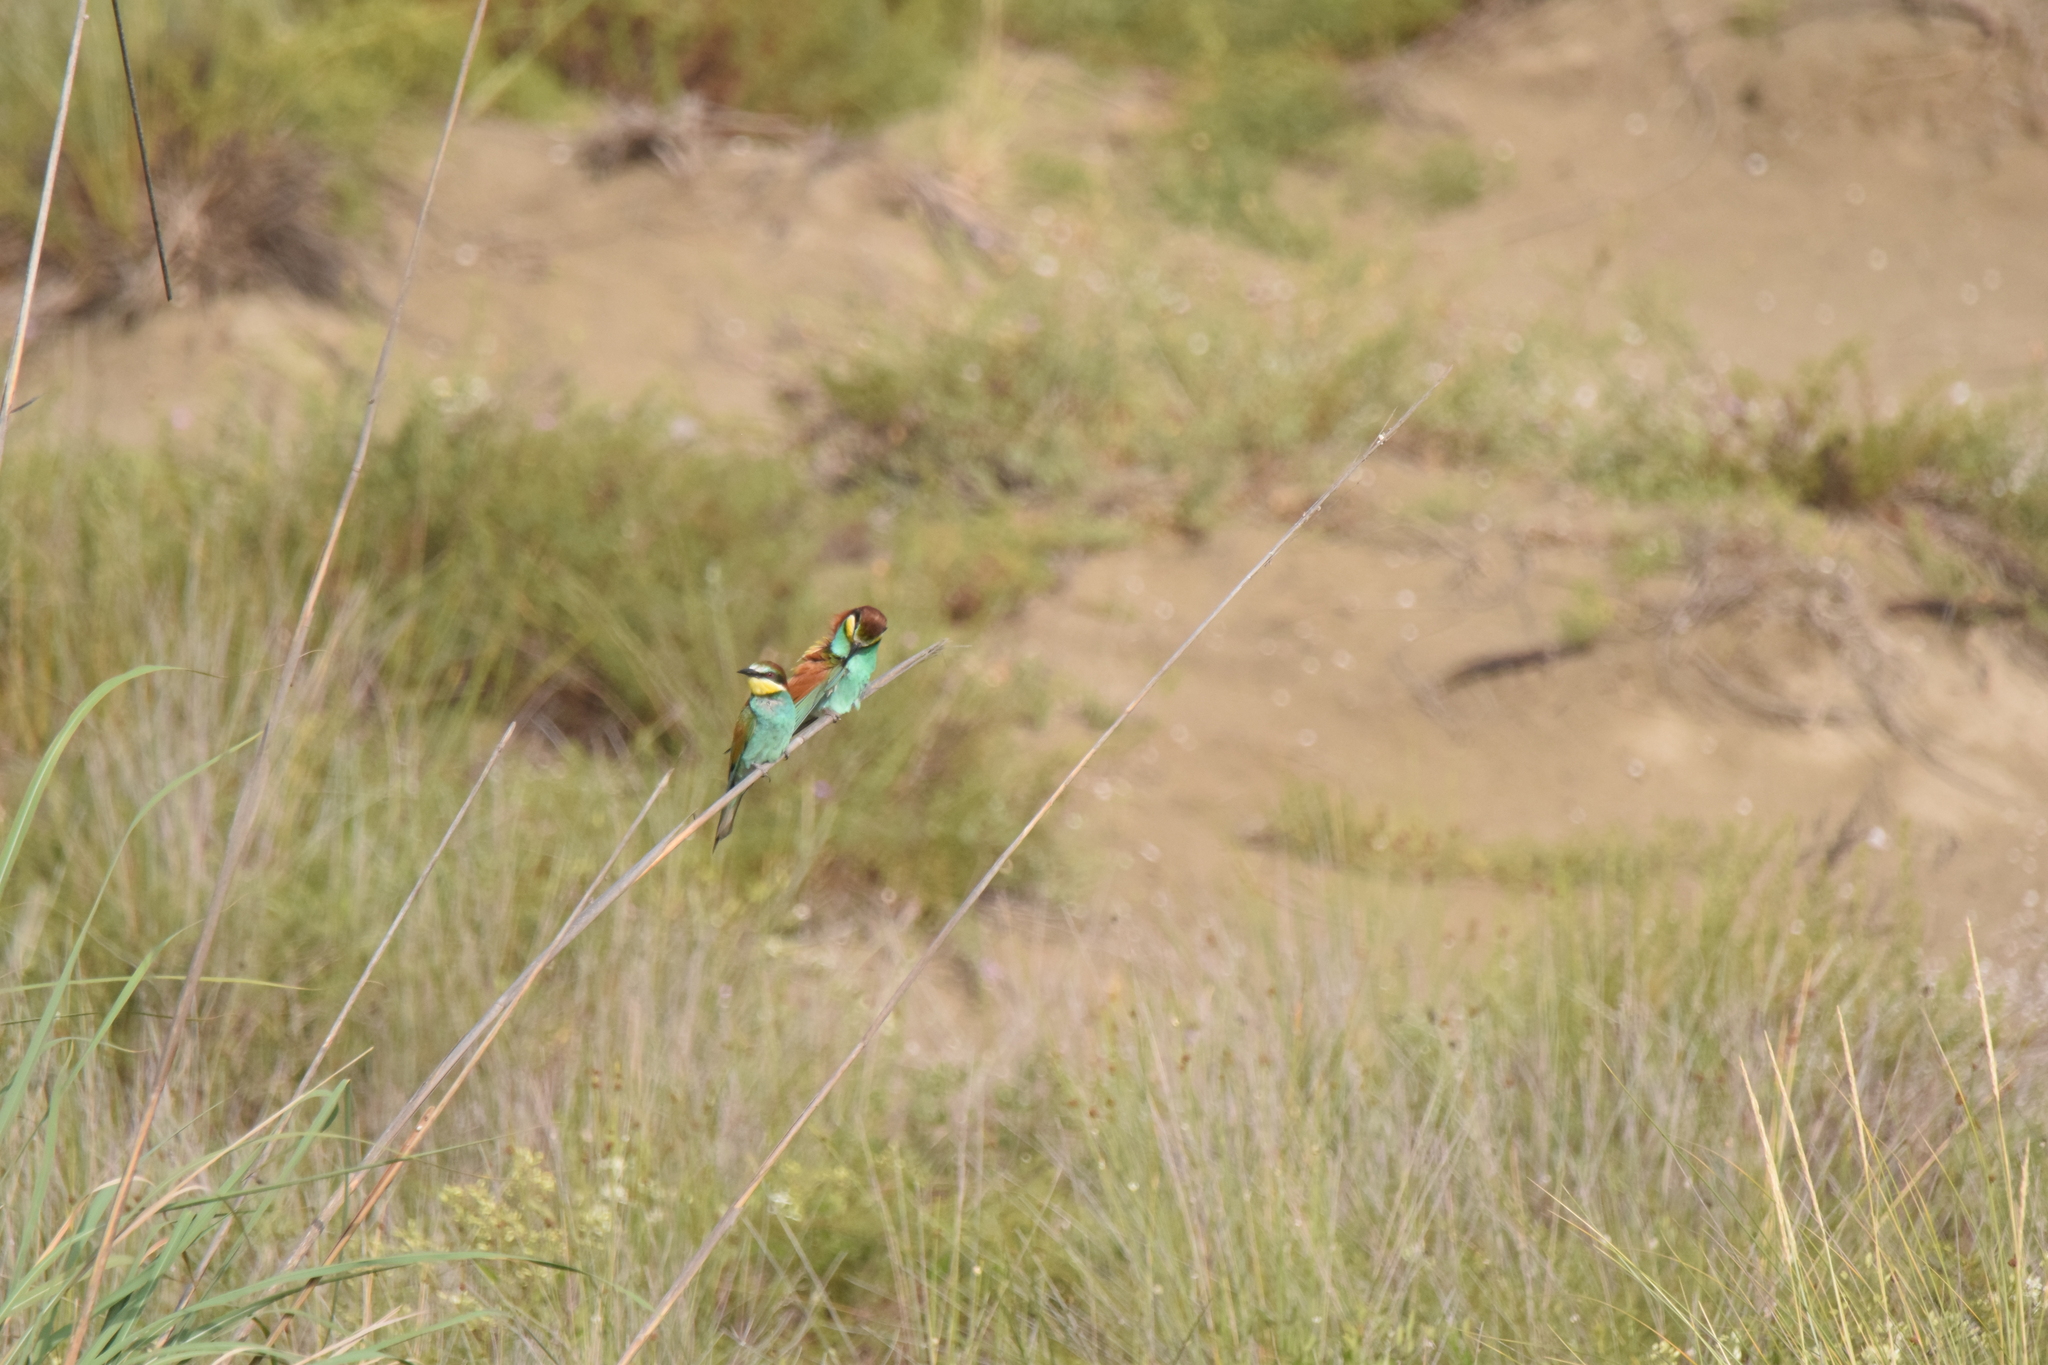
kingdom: Animalia
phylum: Chordata
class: Aves
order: Coraciiformes
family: Meropidae
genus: Merops
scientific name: Merops apiaster
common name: European bee-eater
